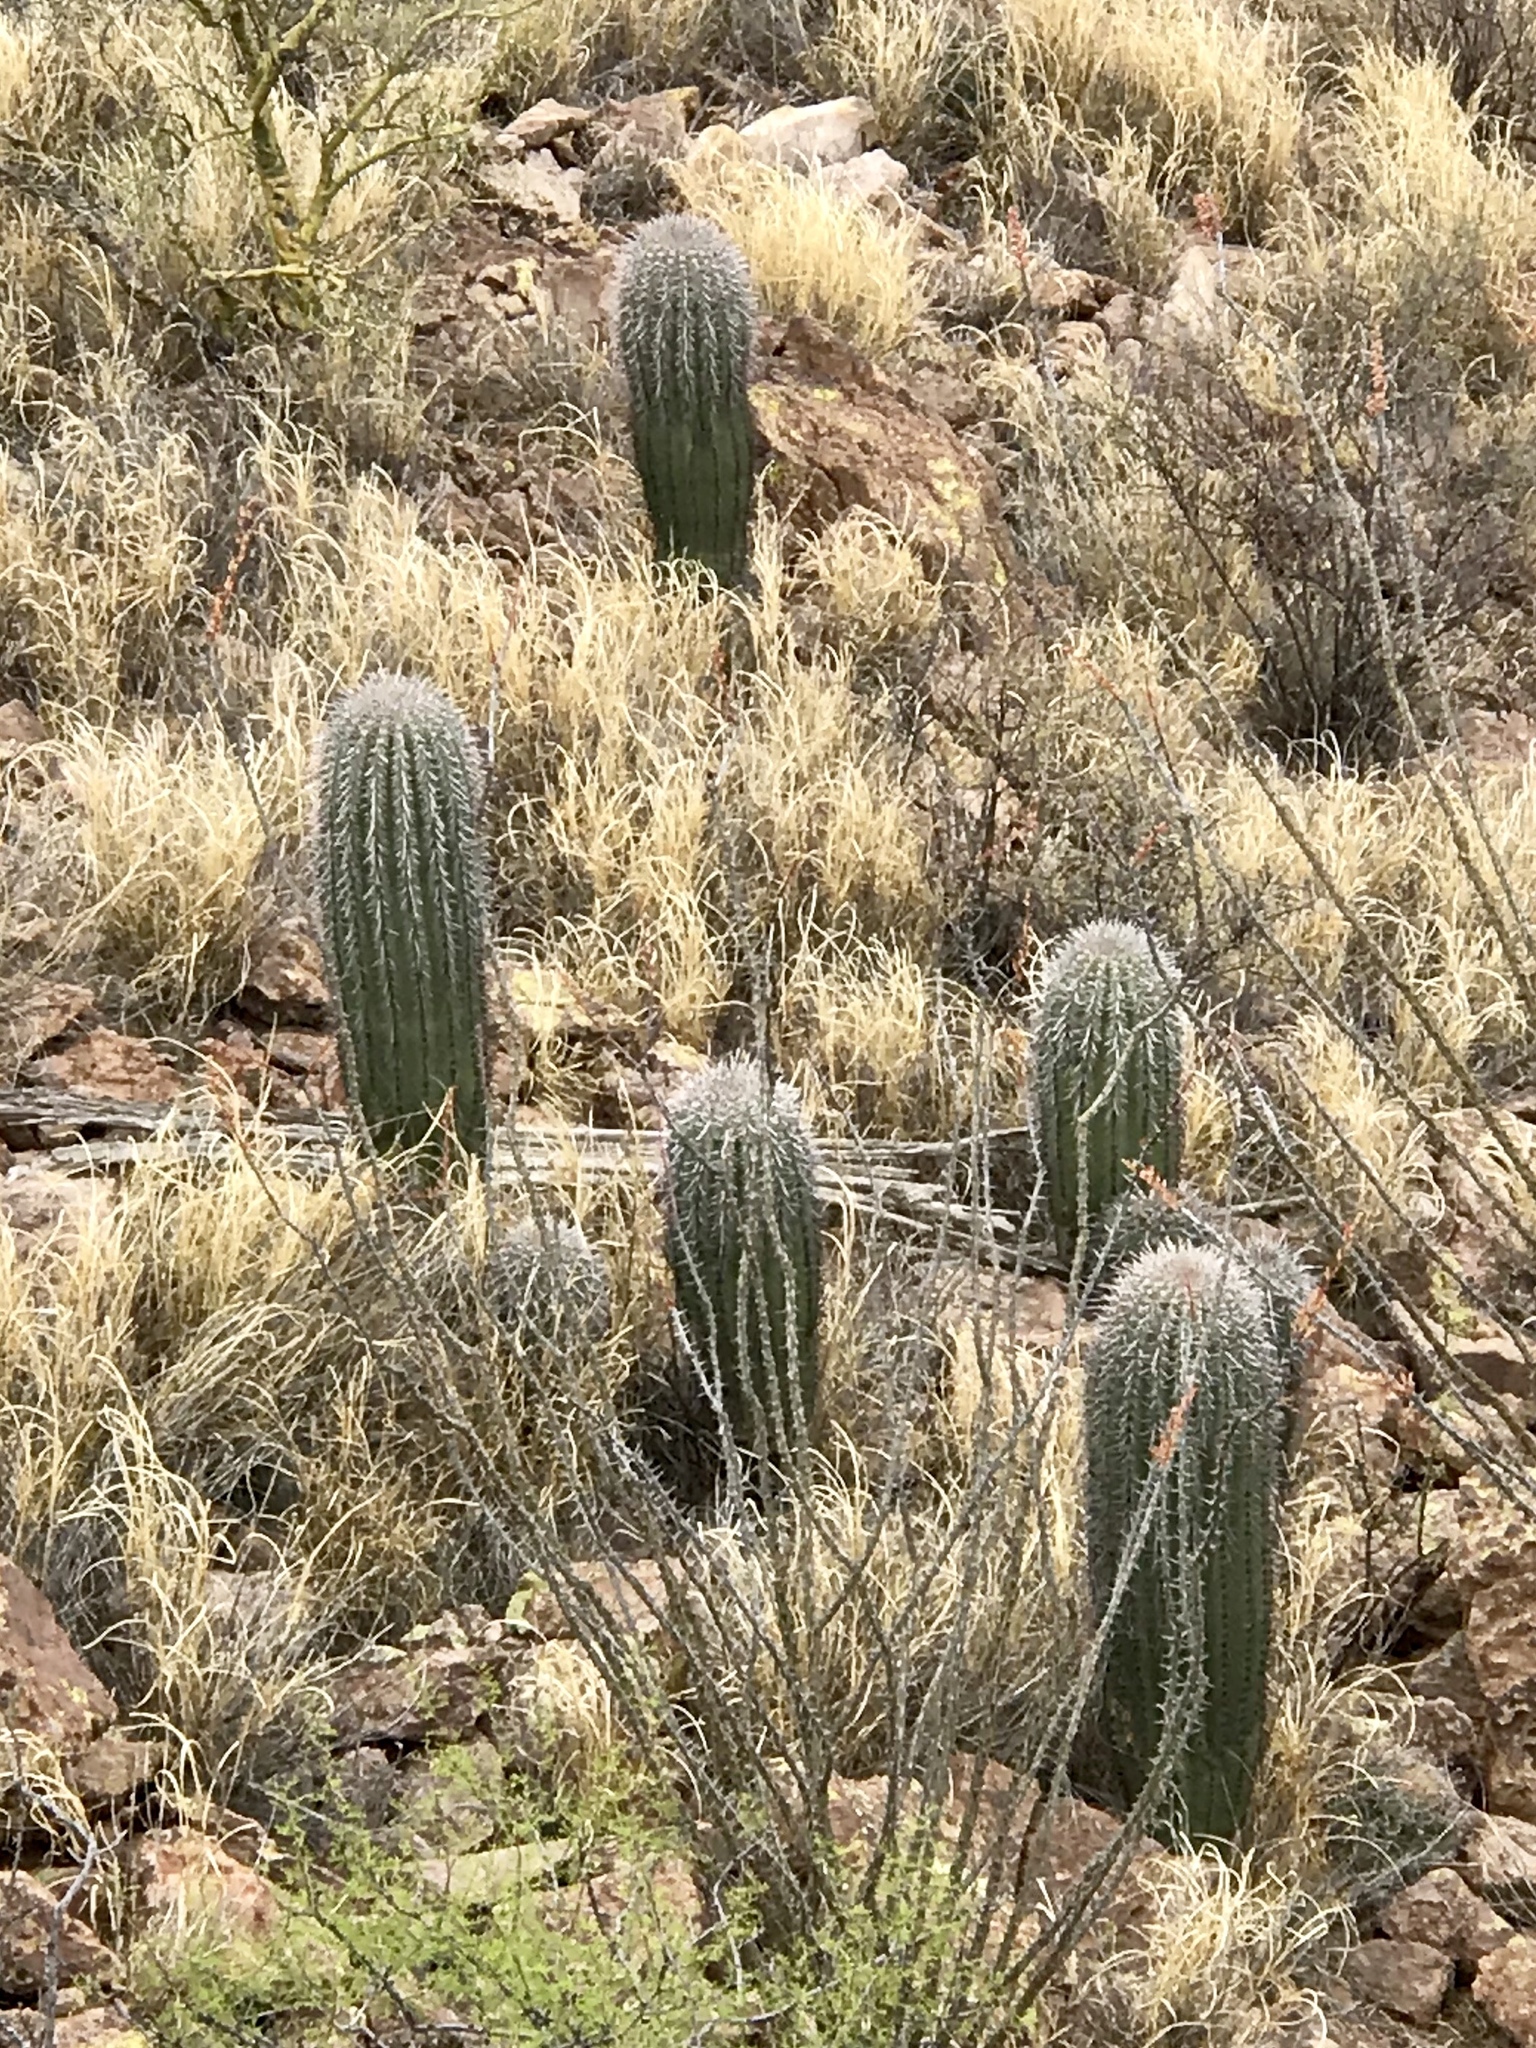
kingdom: Plantae
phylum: Tracheophyta
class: Magnoliopsida
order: Caryophyllales
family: Cactaceae
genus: Carnegiea
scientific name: Carnegiea gigantea
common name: Saguaro
